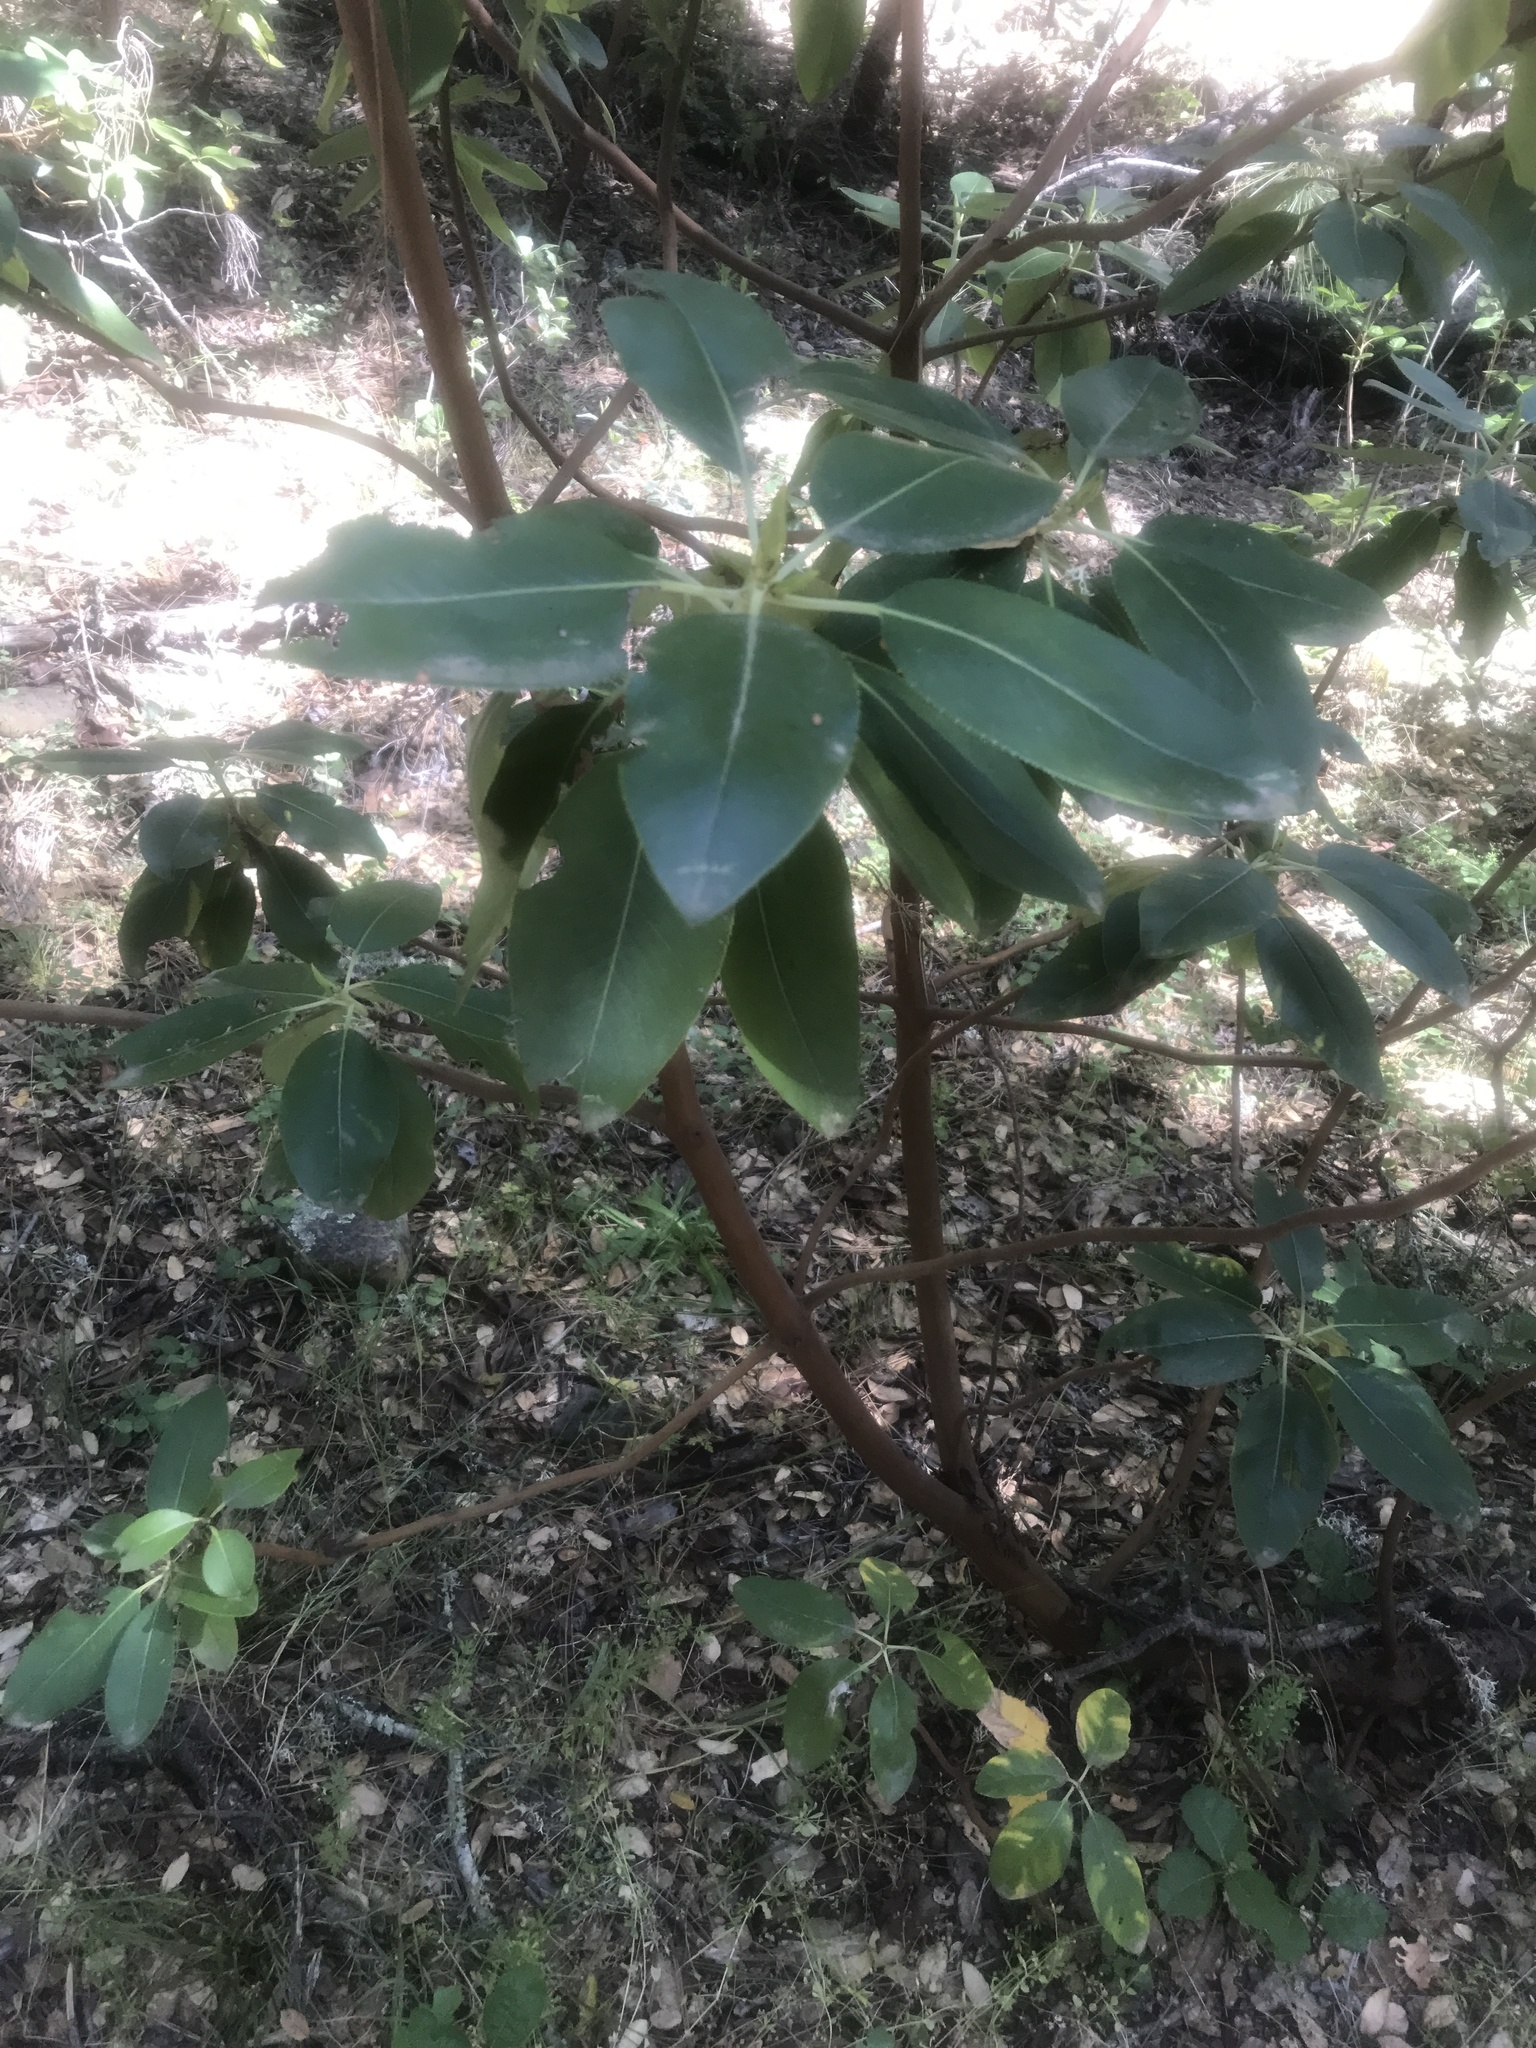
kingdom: Plantae
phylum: Tracheophyta
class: Magnoliopsida
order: Ericales
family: Ericaceae
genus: Arbutus
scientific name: Arbutus menziesii
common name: Pacific madrone
